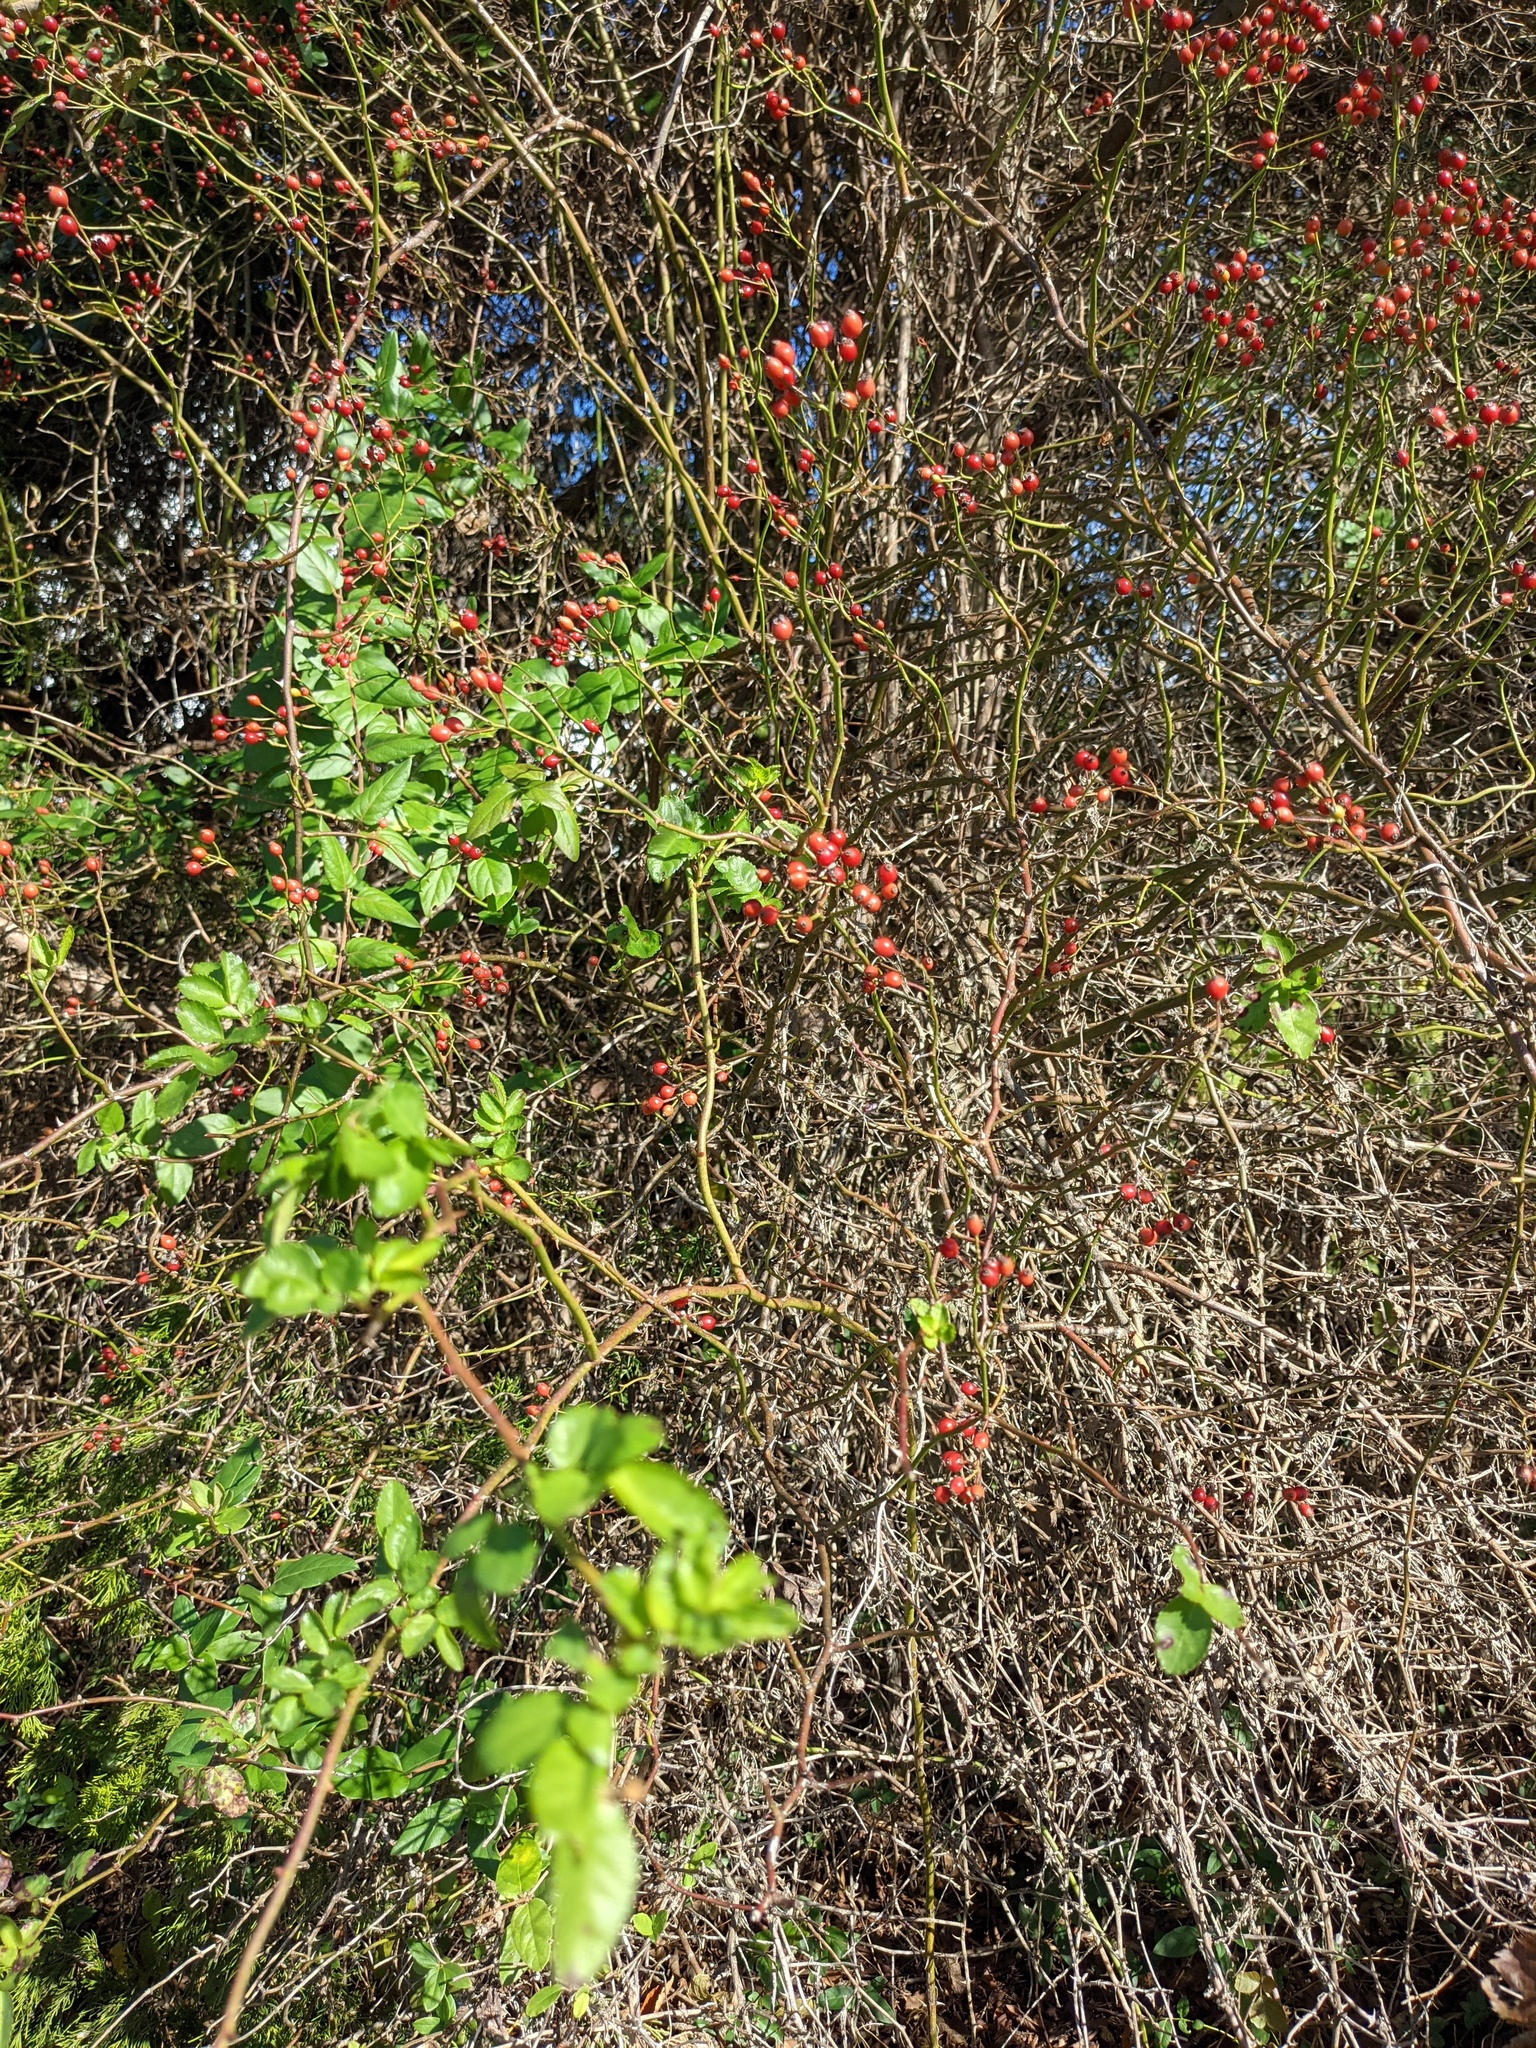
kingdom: Plantae
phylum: Tracheophyta
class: Magnoliopsida
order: Rosales
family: Rosaceae
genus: Rosa
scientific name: Rosa multiflora
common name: Multiflora rose
